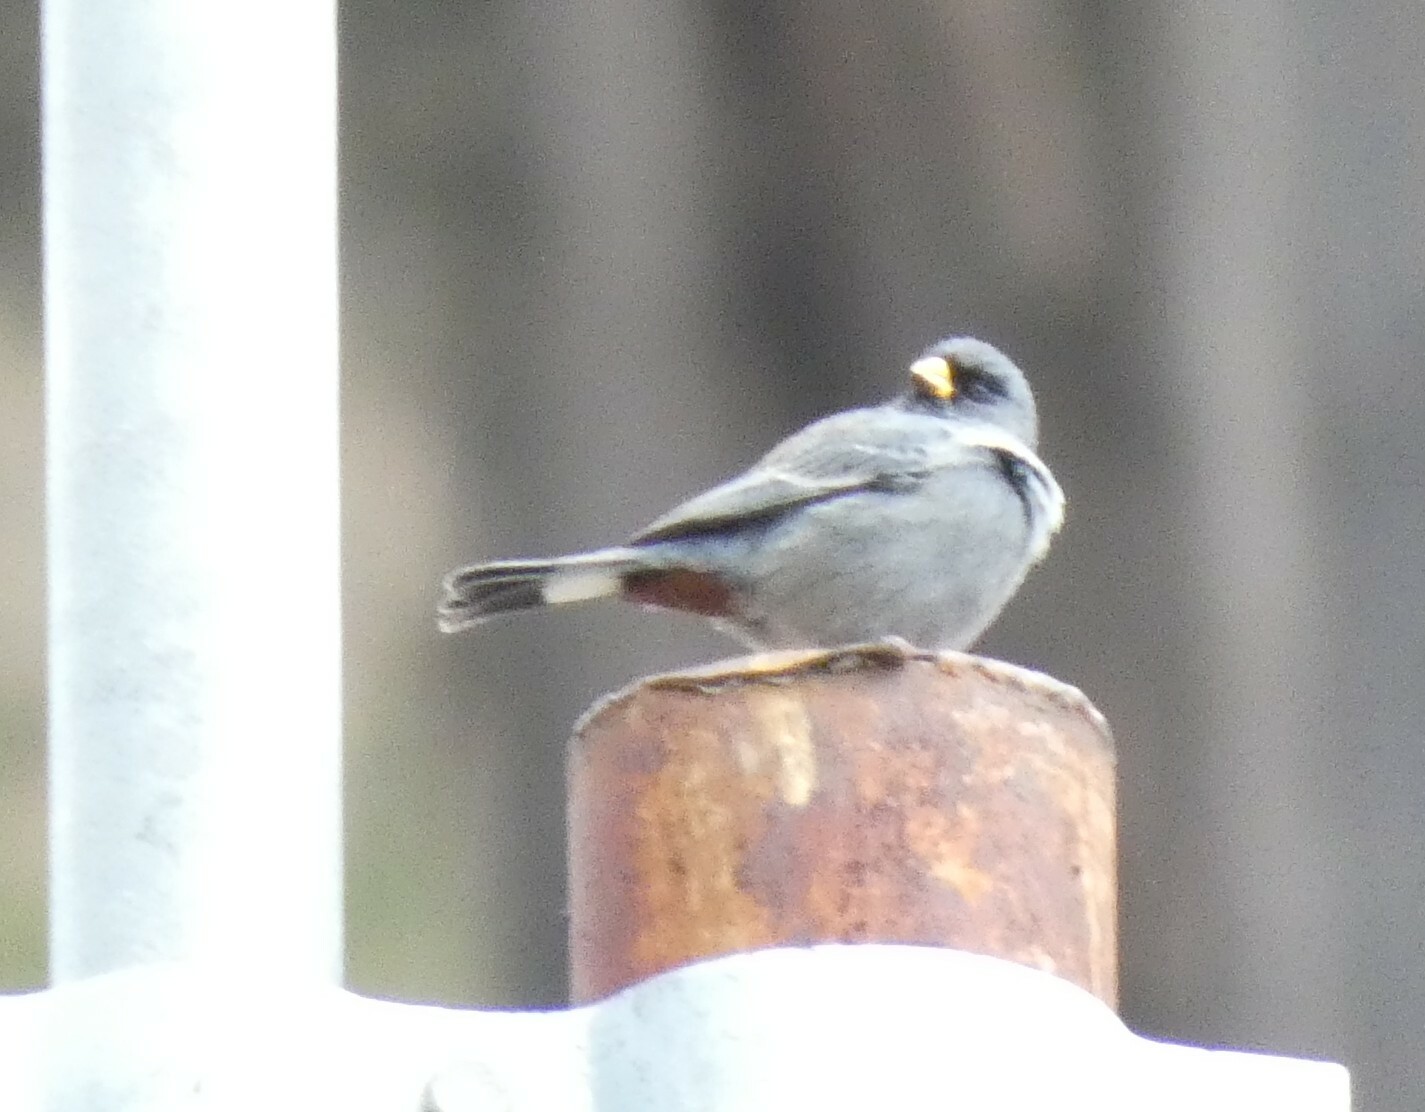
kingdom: Animalia
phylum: Chordata
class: Aves
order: Passeriformes
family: Thraupidae
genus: Catamenia
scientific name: Catamenia analis
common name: Band-tailed seedeater
